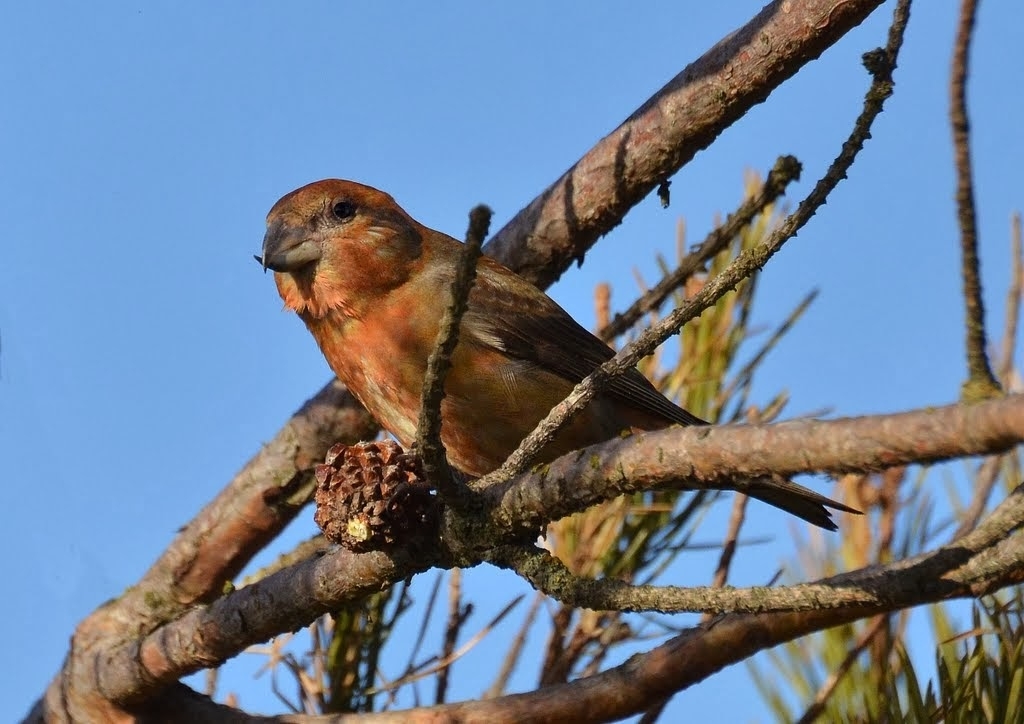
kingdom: Animalia
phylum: Chordata
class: Aves
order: Passeriformes
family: Fringillidae
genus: Loxia
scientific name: Loxia curvirostra
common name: Red crossbill
